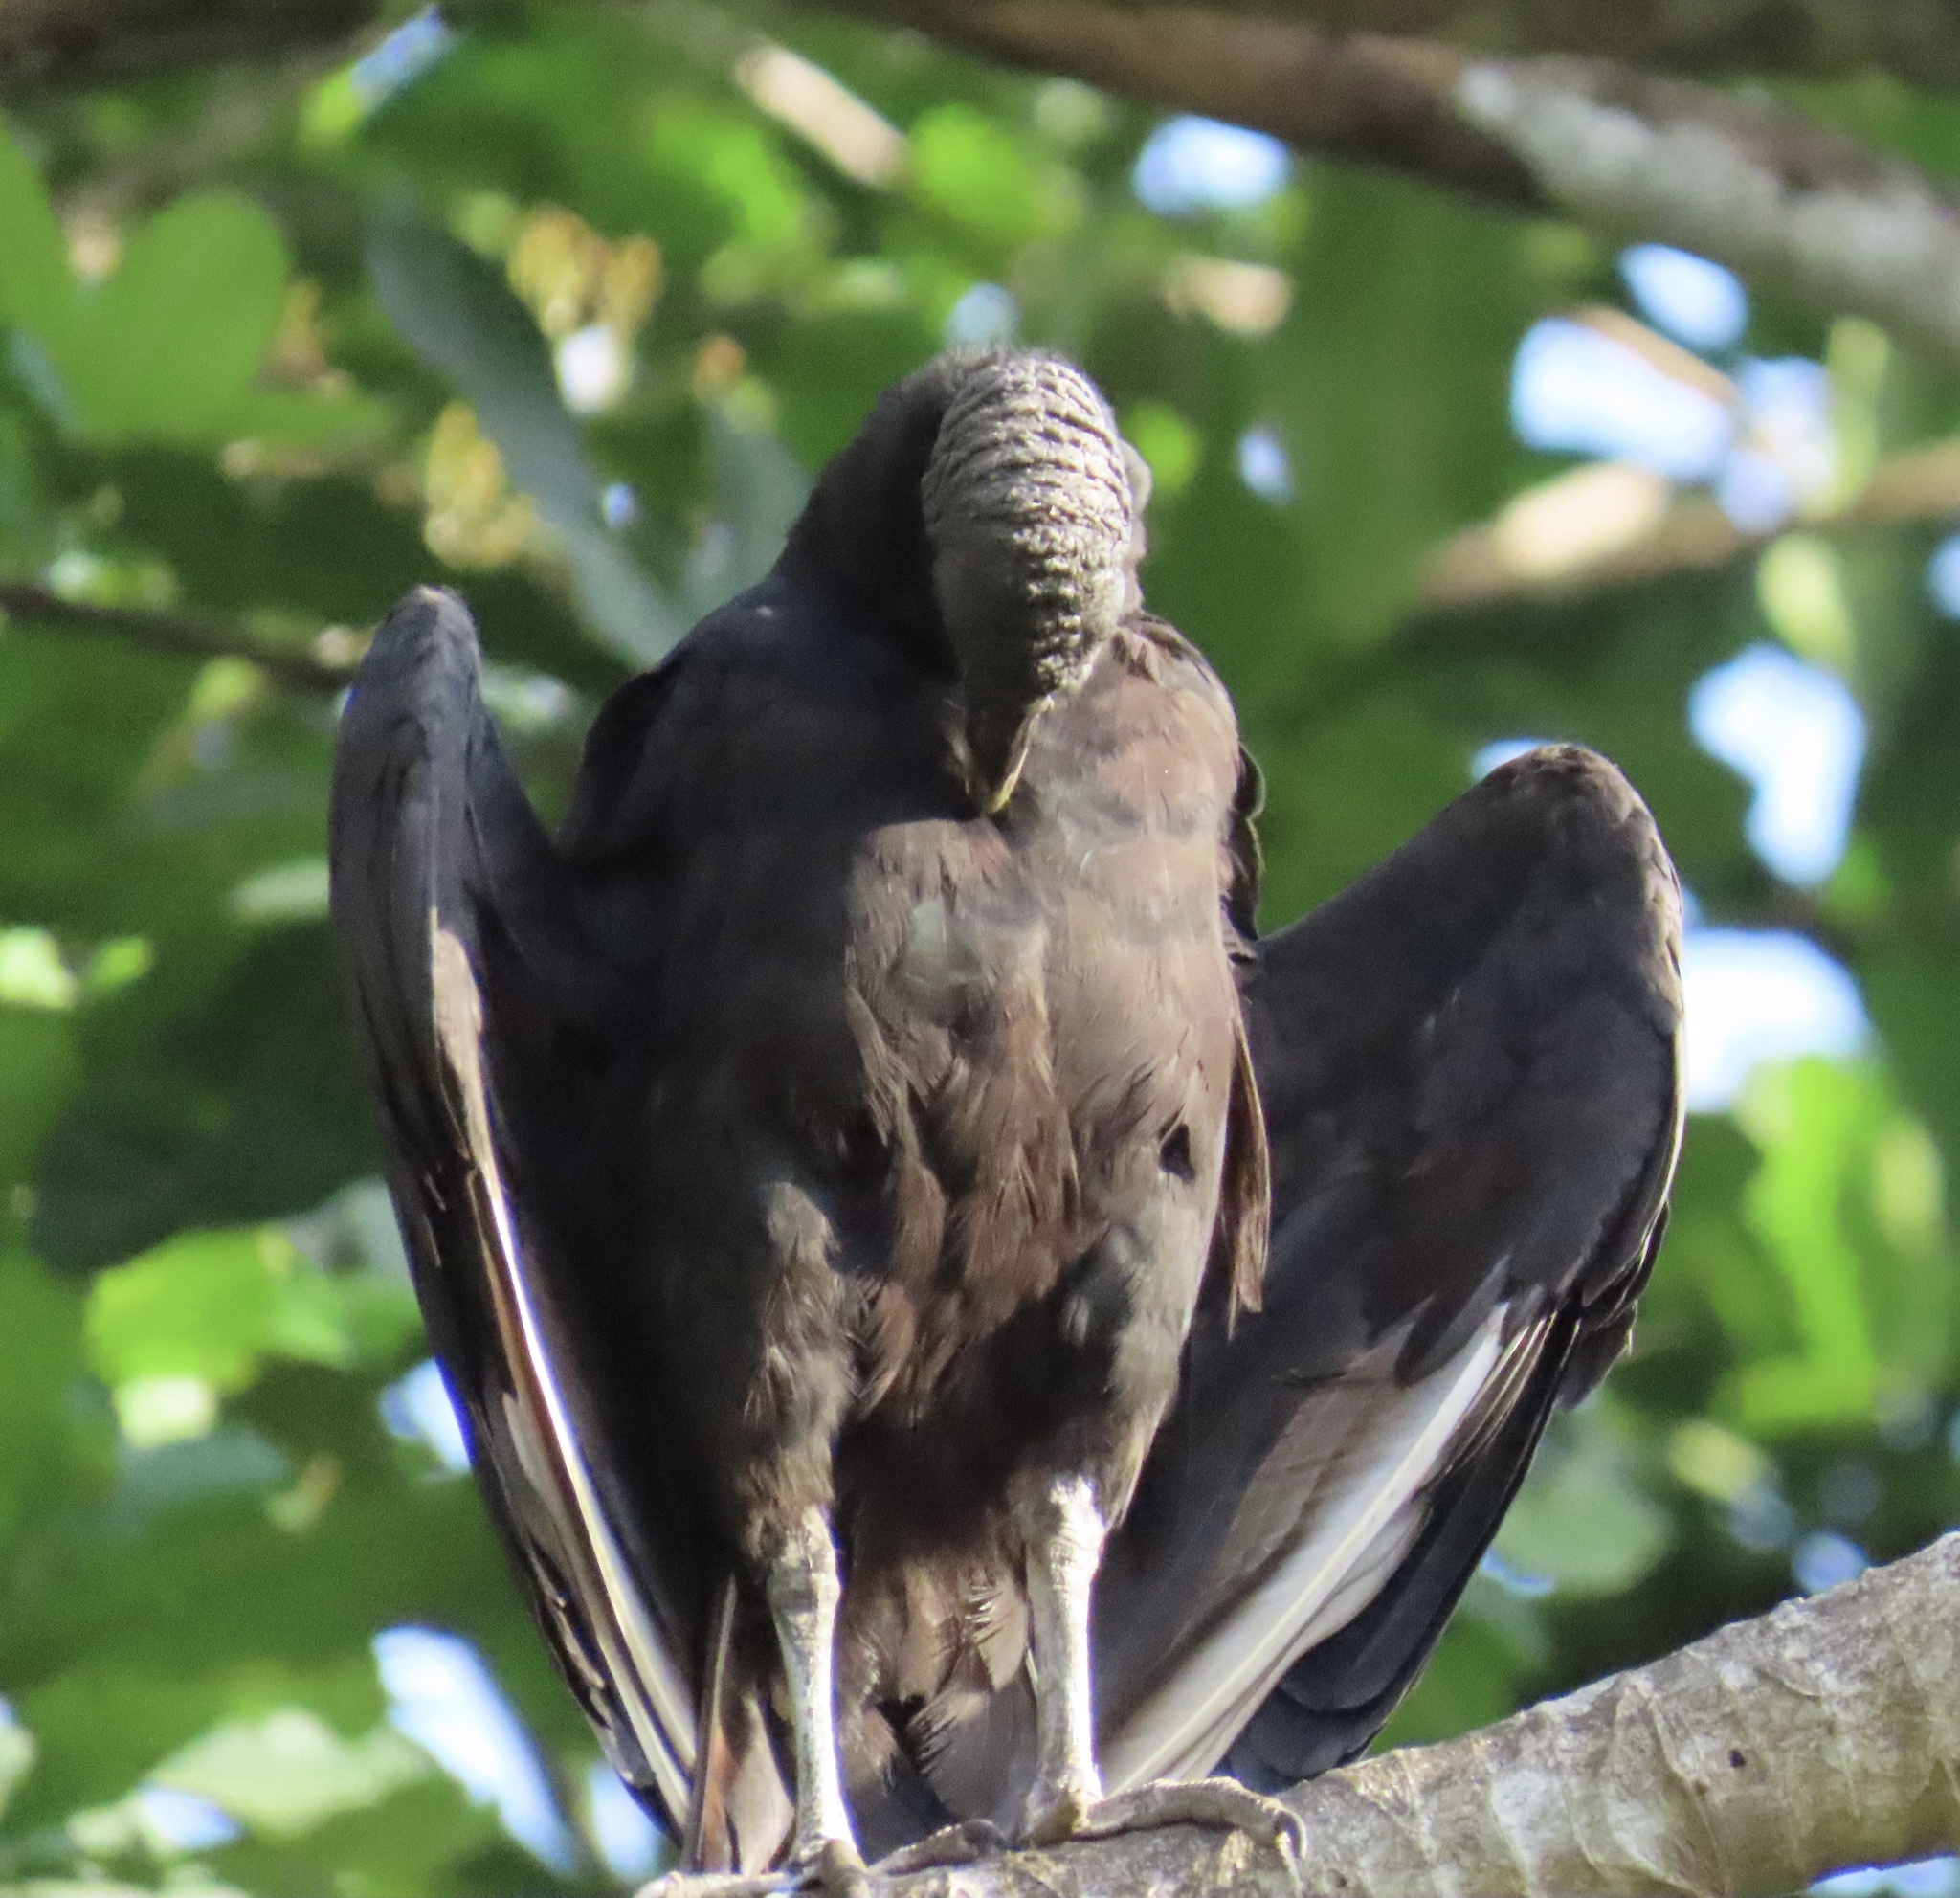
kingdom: Animalia
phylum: Chordata
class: Aves
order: Accipitriformes
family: Cathartidae
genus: Coragyps
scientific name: Coragyps atratus
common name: Black vulture
